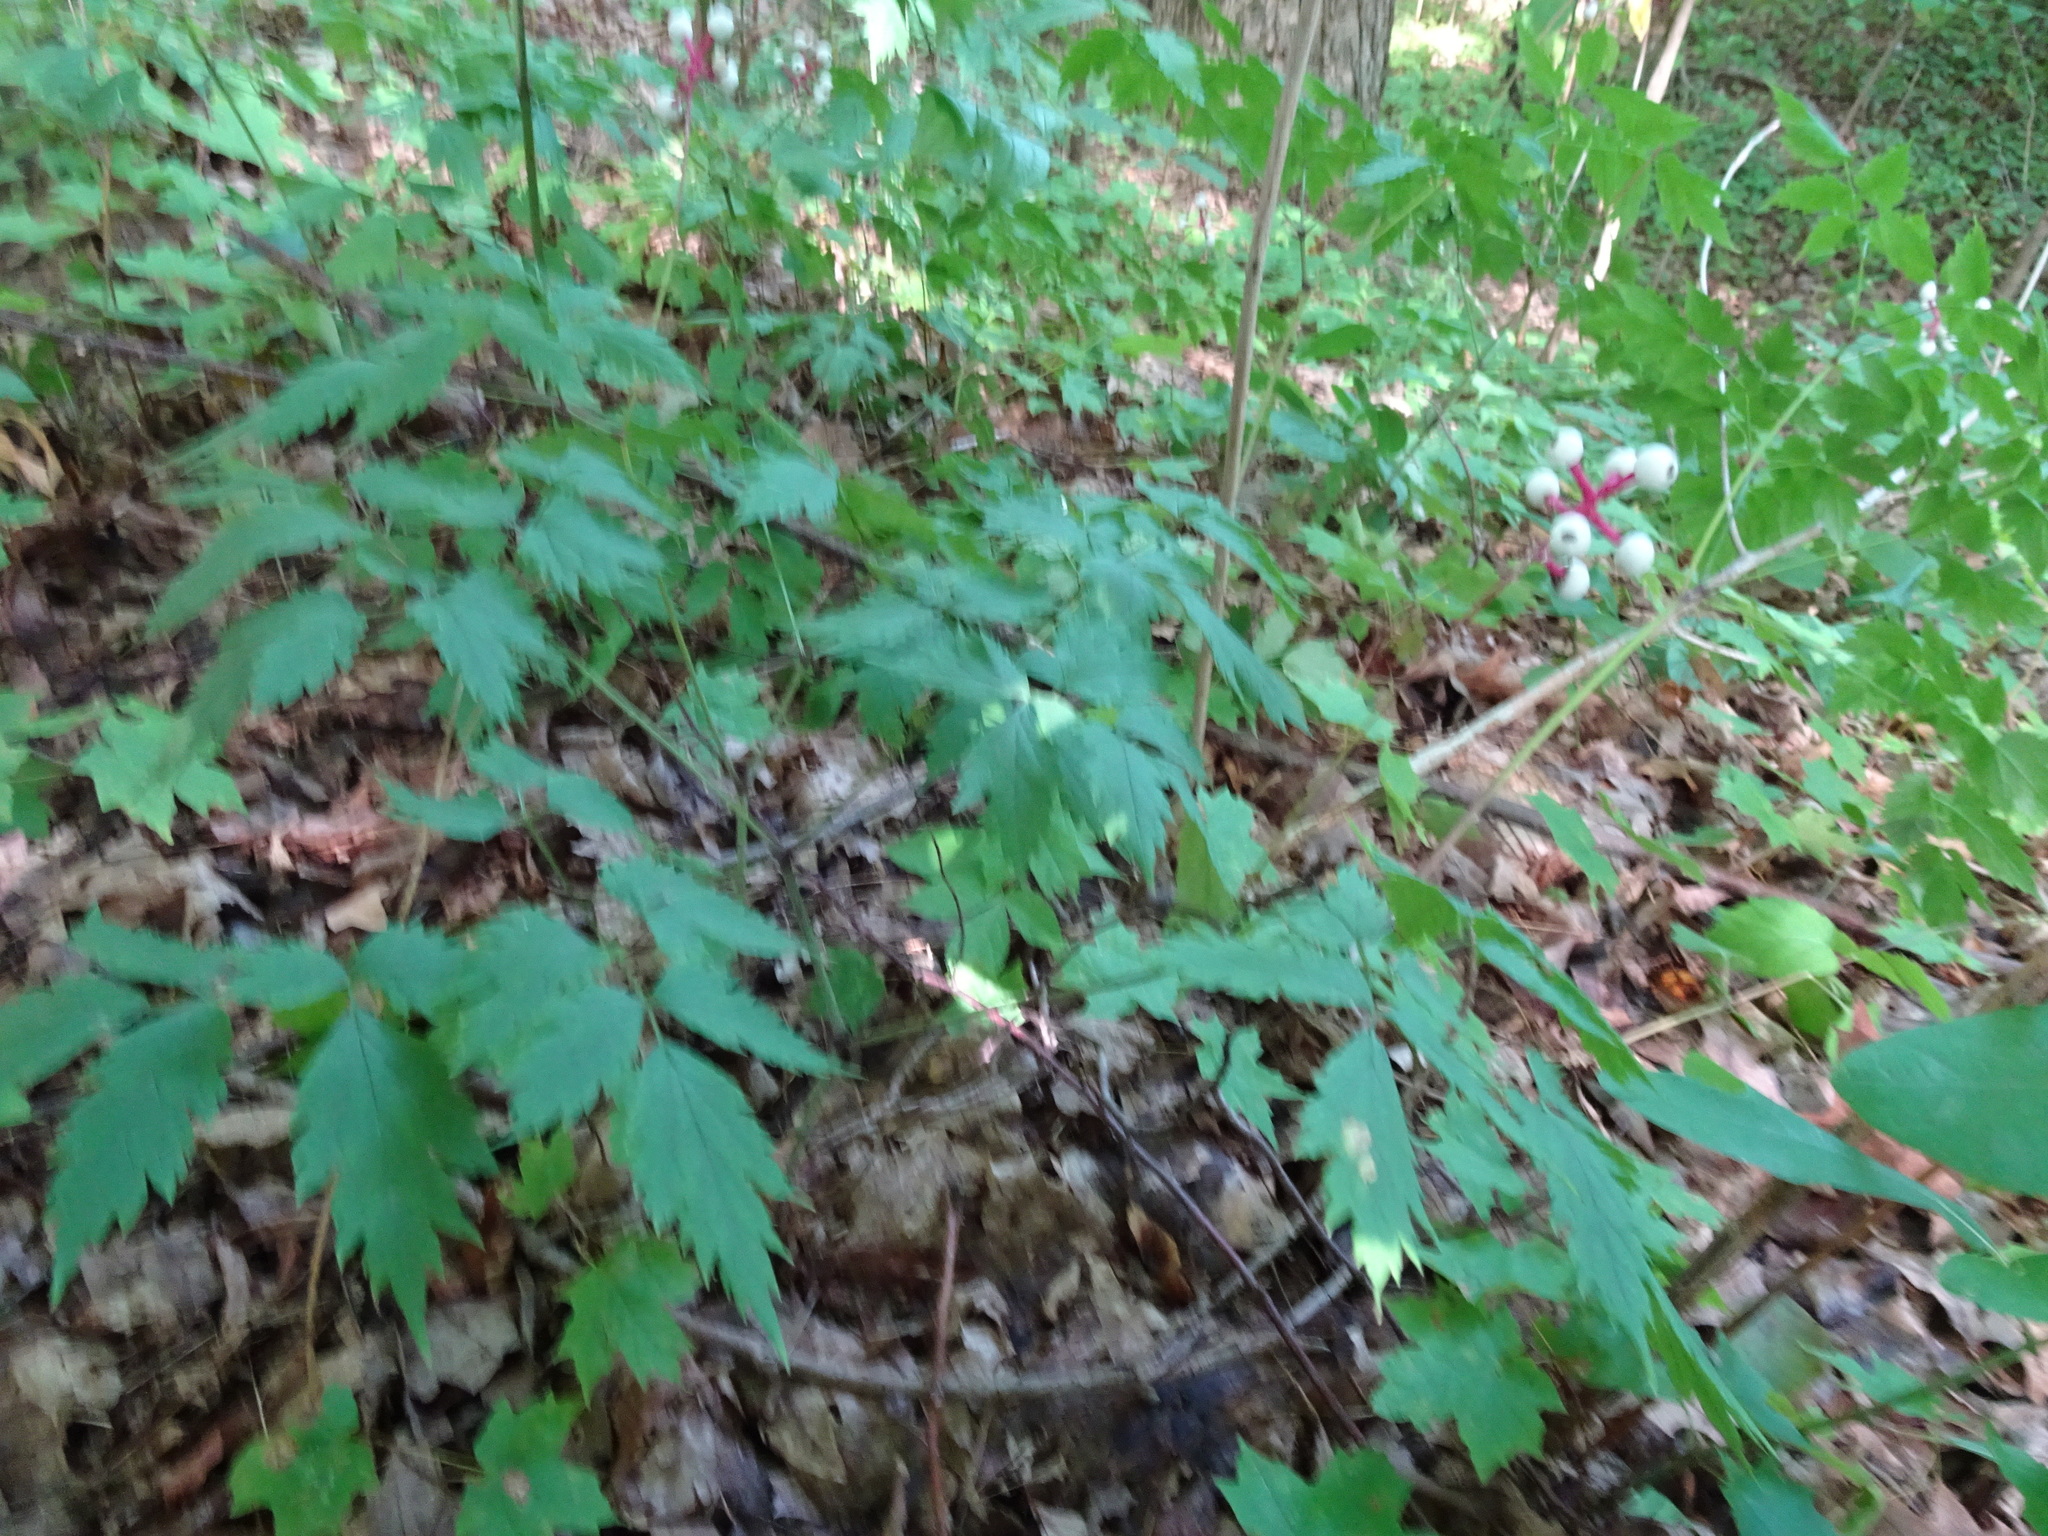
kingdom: Plantae
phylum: Tracheophyta
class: Magnoliopsida
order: Ranunculales
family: Ranunculaceae
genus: Actaea
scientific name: Actaea pachypoda
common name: Doll's-eyes
